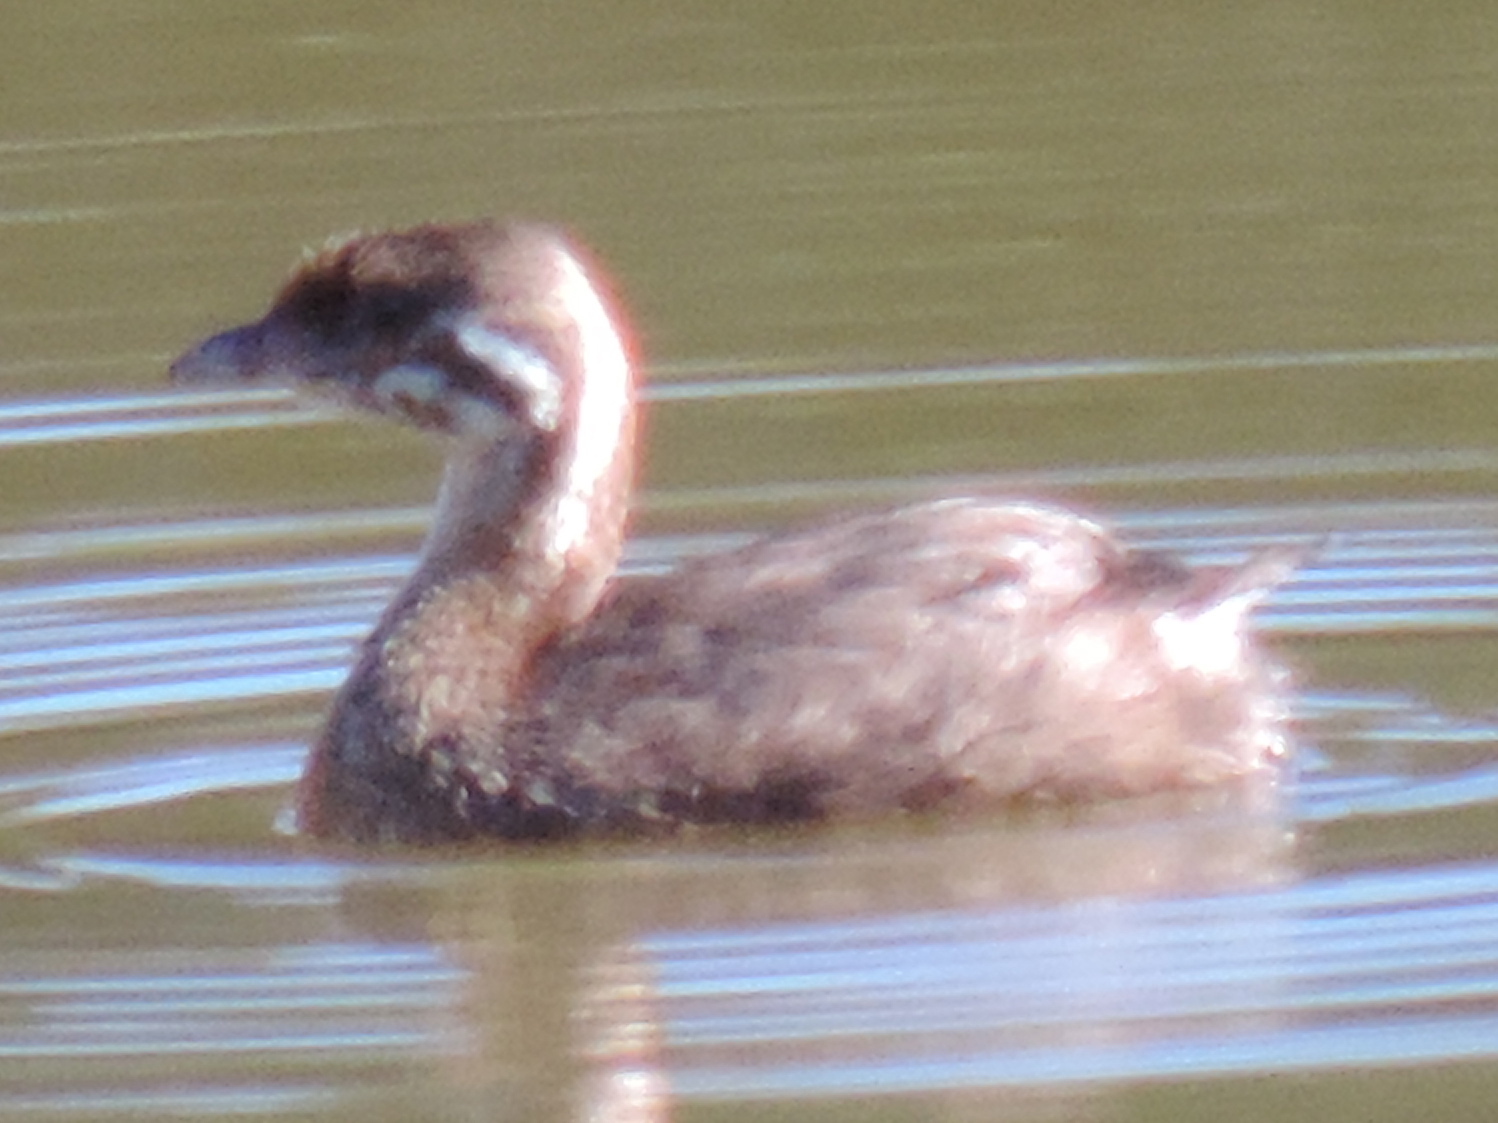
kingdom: Animalia
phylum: Chordata
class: Aves
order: Podicipediformes
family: Podicipedidae
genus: Podilymbus
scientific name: Podilymbus podiceps
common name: Pied-billed grebe
